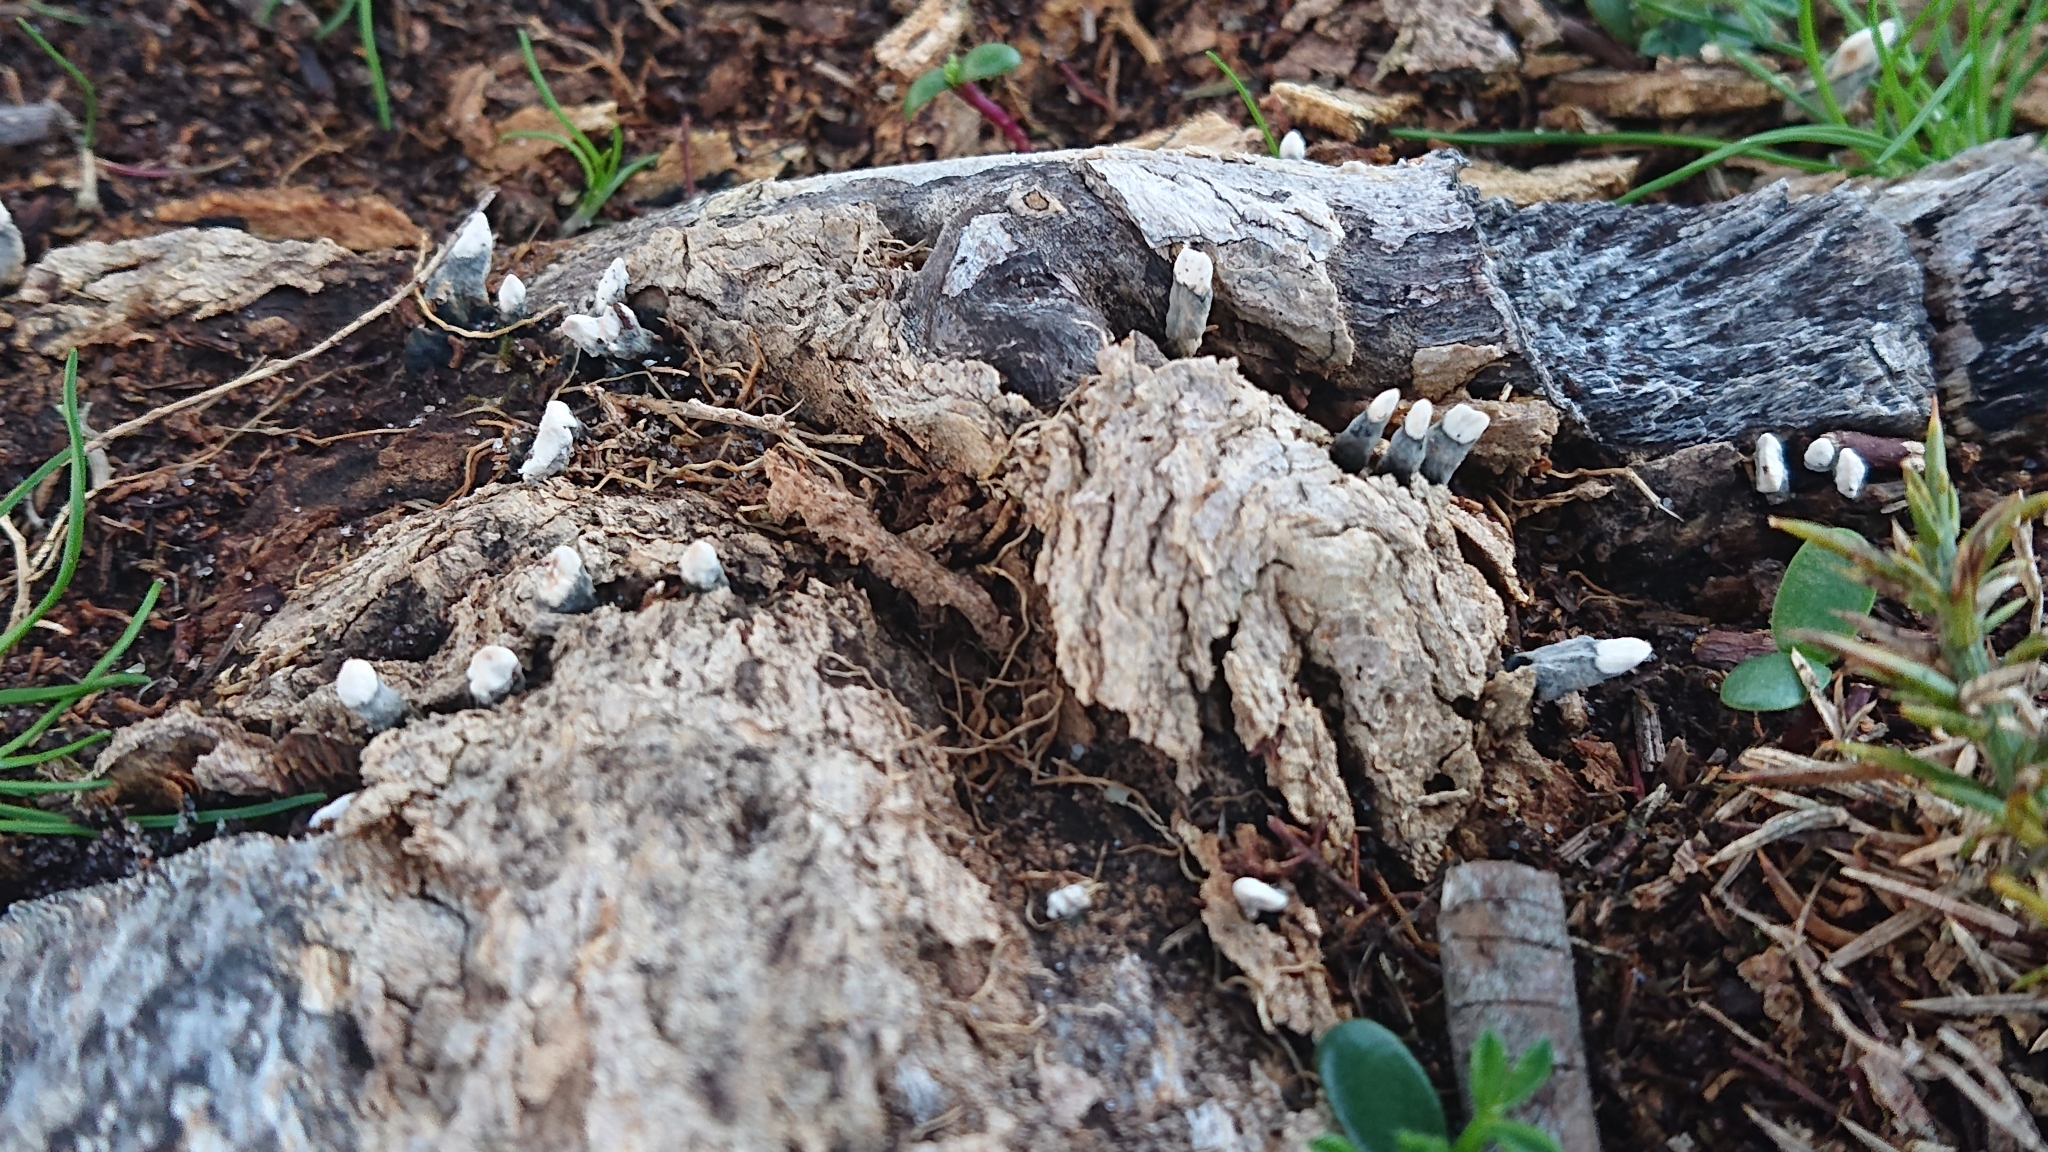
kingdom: Fungi
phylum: Ascomycota
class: Sordariomycetes
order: Xylariales
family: Xylariaceae
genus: Xylaria
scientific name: Xylaria polymorpha
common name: Dead man's fingers
